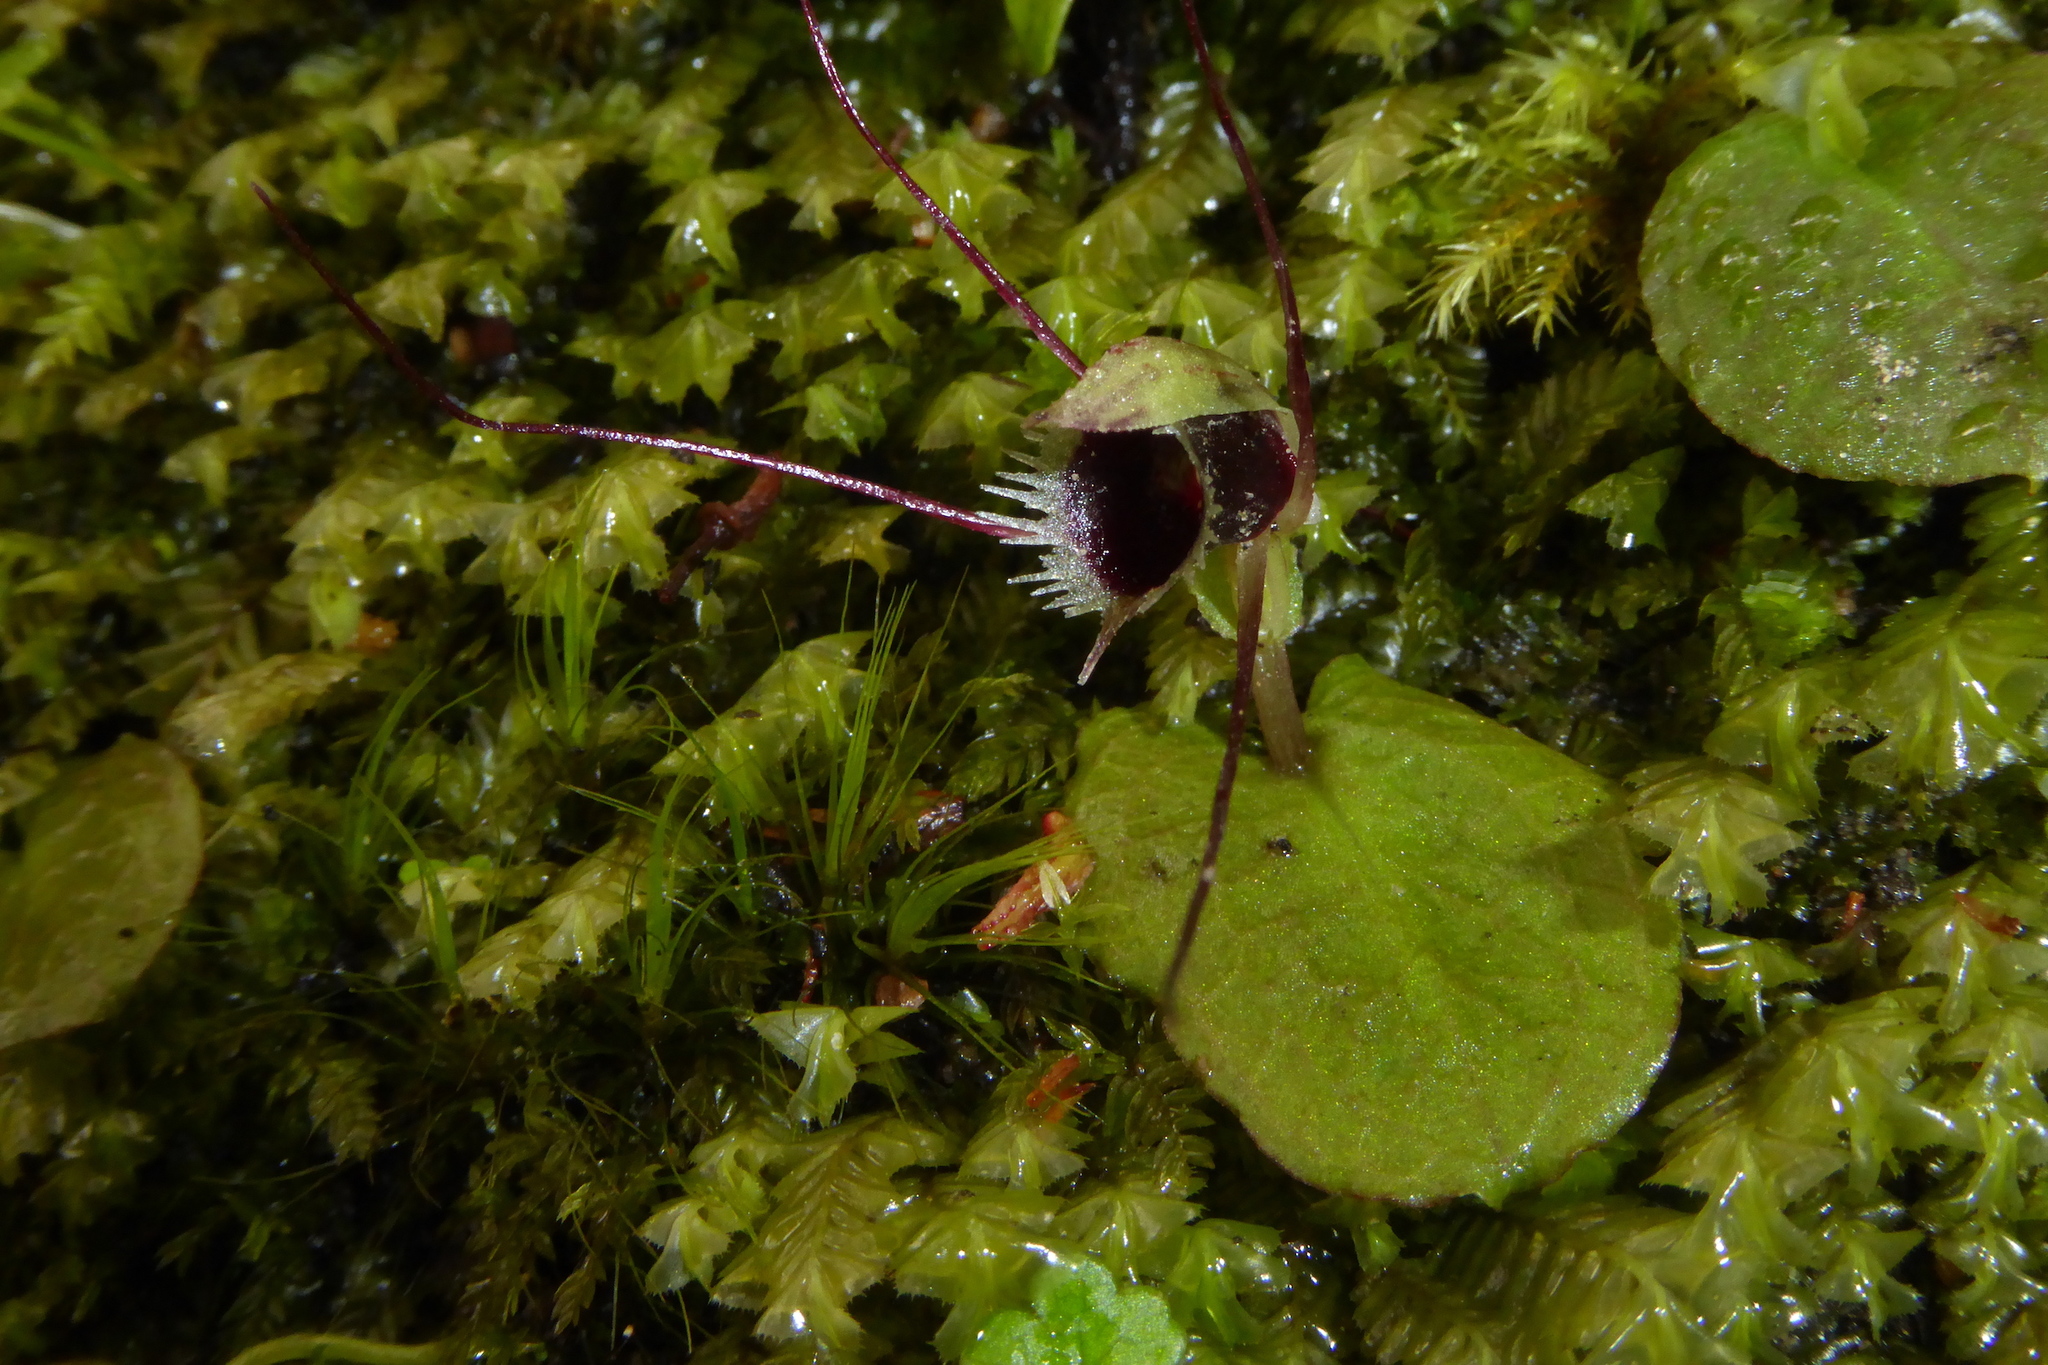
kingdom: Plantae
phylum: Tracheophyta
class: Liliopsida
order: Asparagales
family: Orchidaceae
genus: Corybas
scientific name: Corybas oblongus
